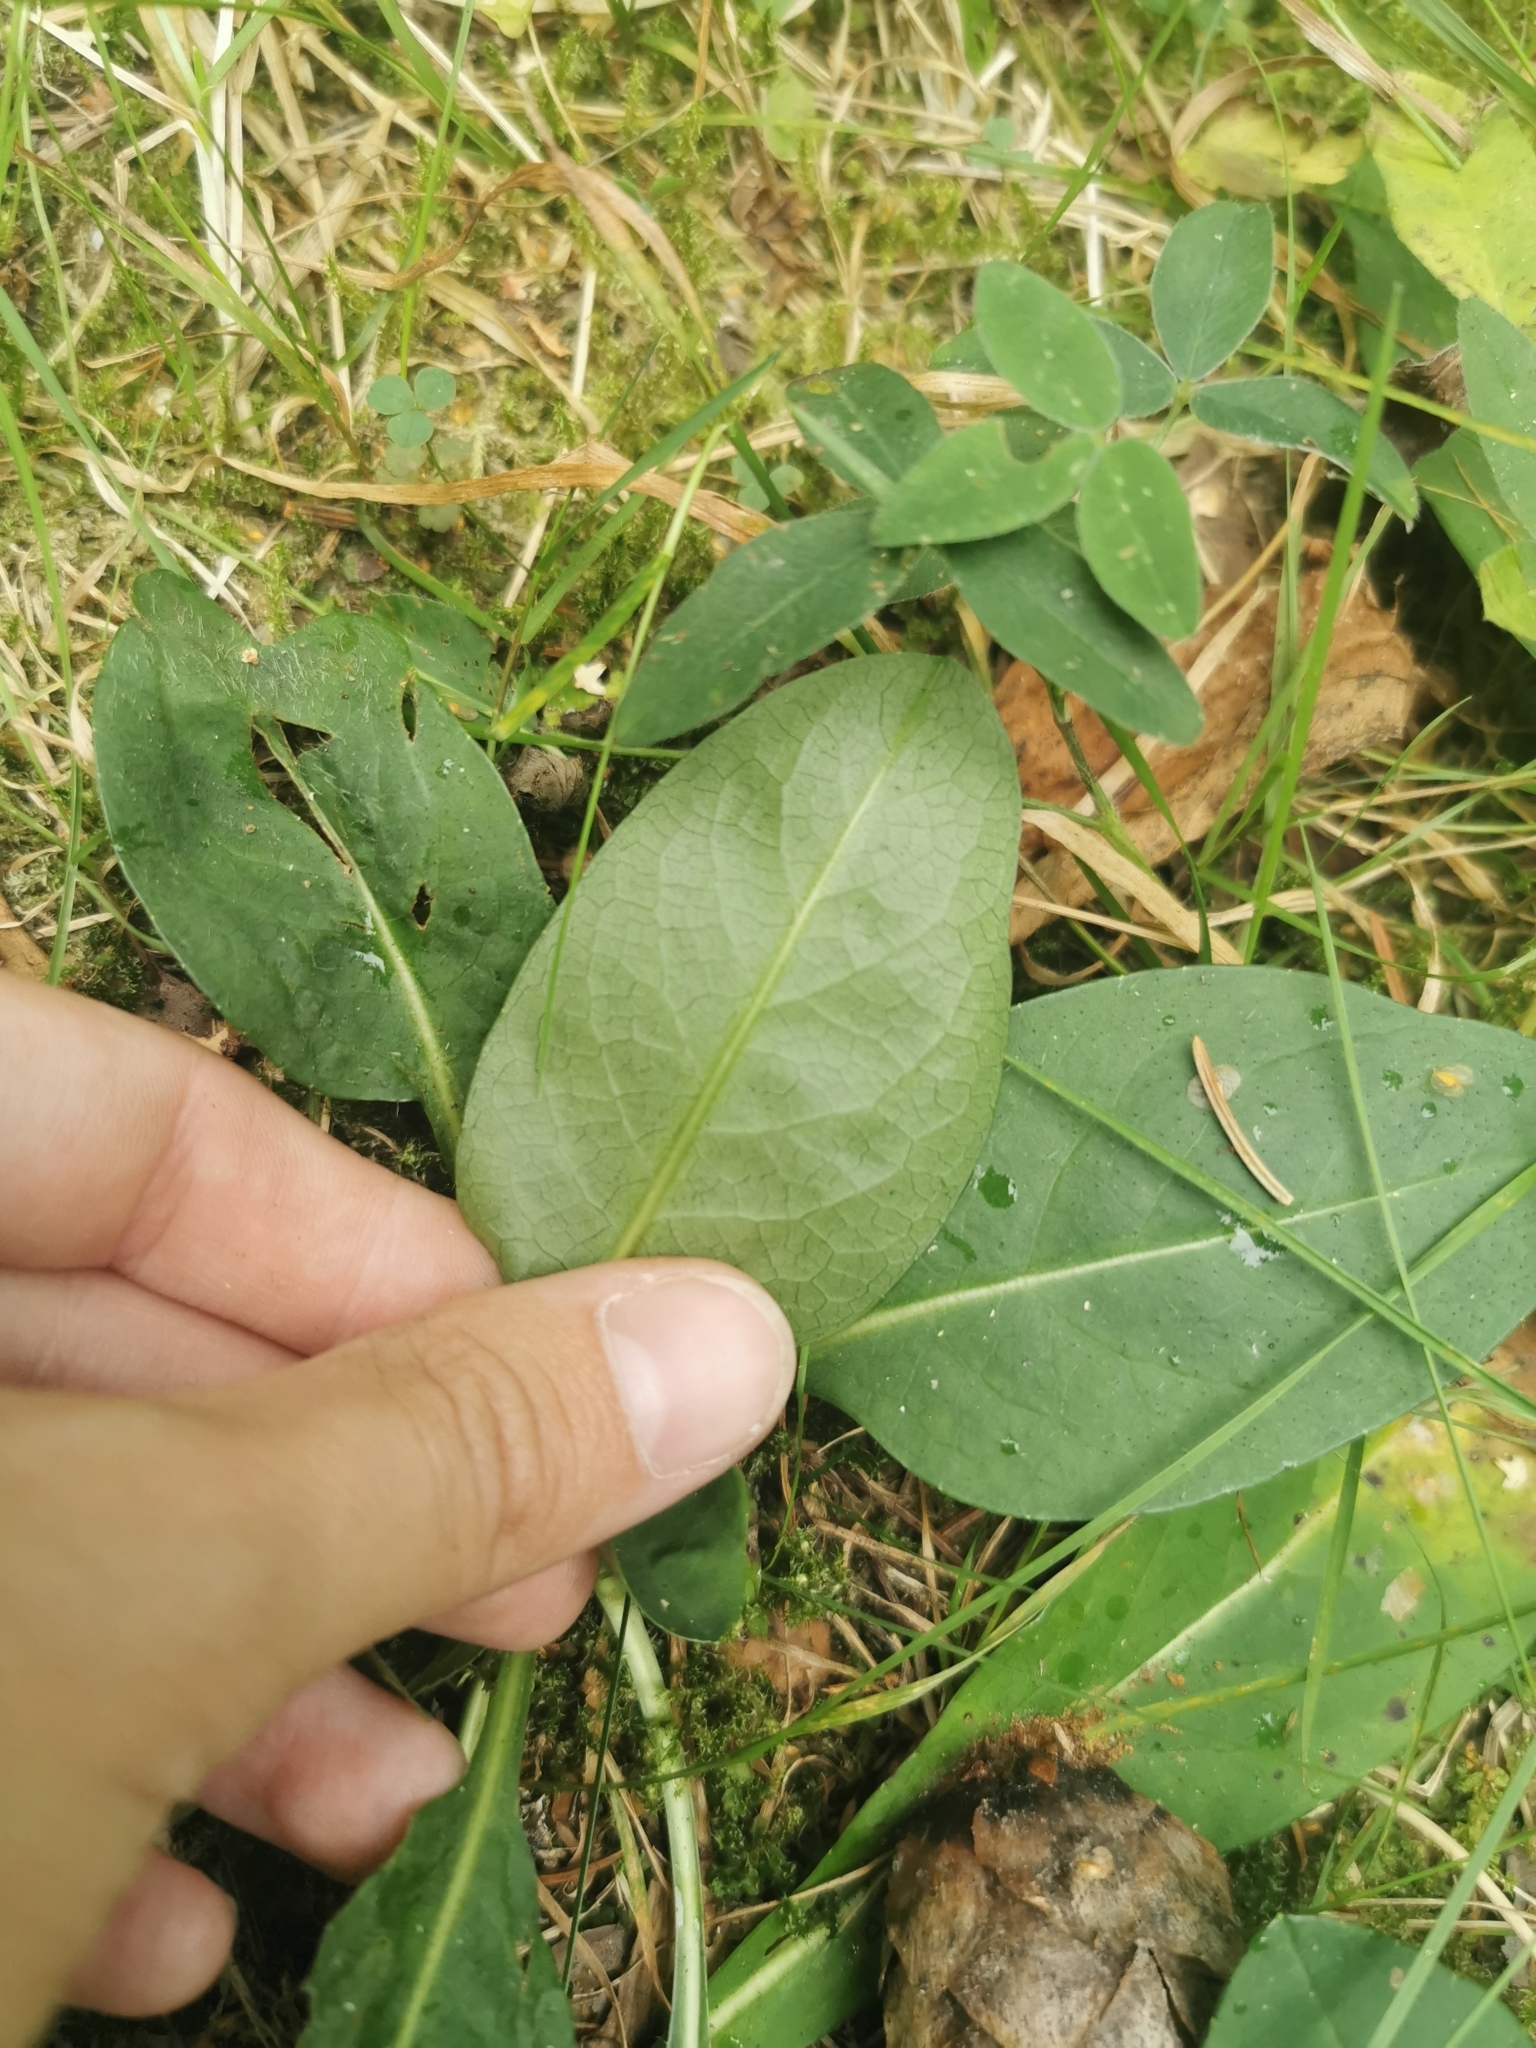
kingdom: Plantae
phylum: Tracheophyta
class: Magnoliopsida
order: Dipsacales
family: Caprifoliaceae
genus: Succisa
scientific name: Succisa pratensis
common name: Devil's-bit
